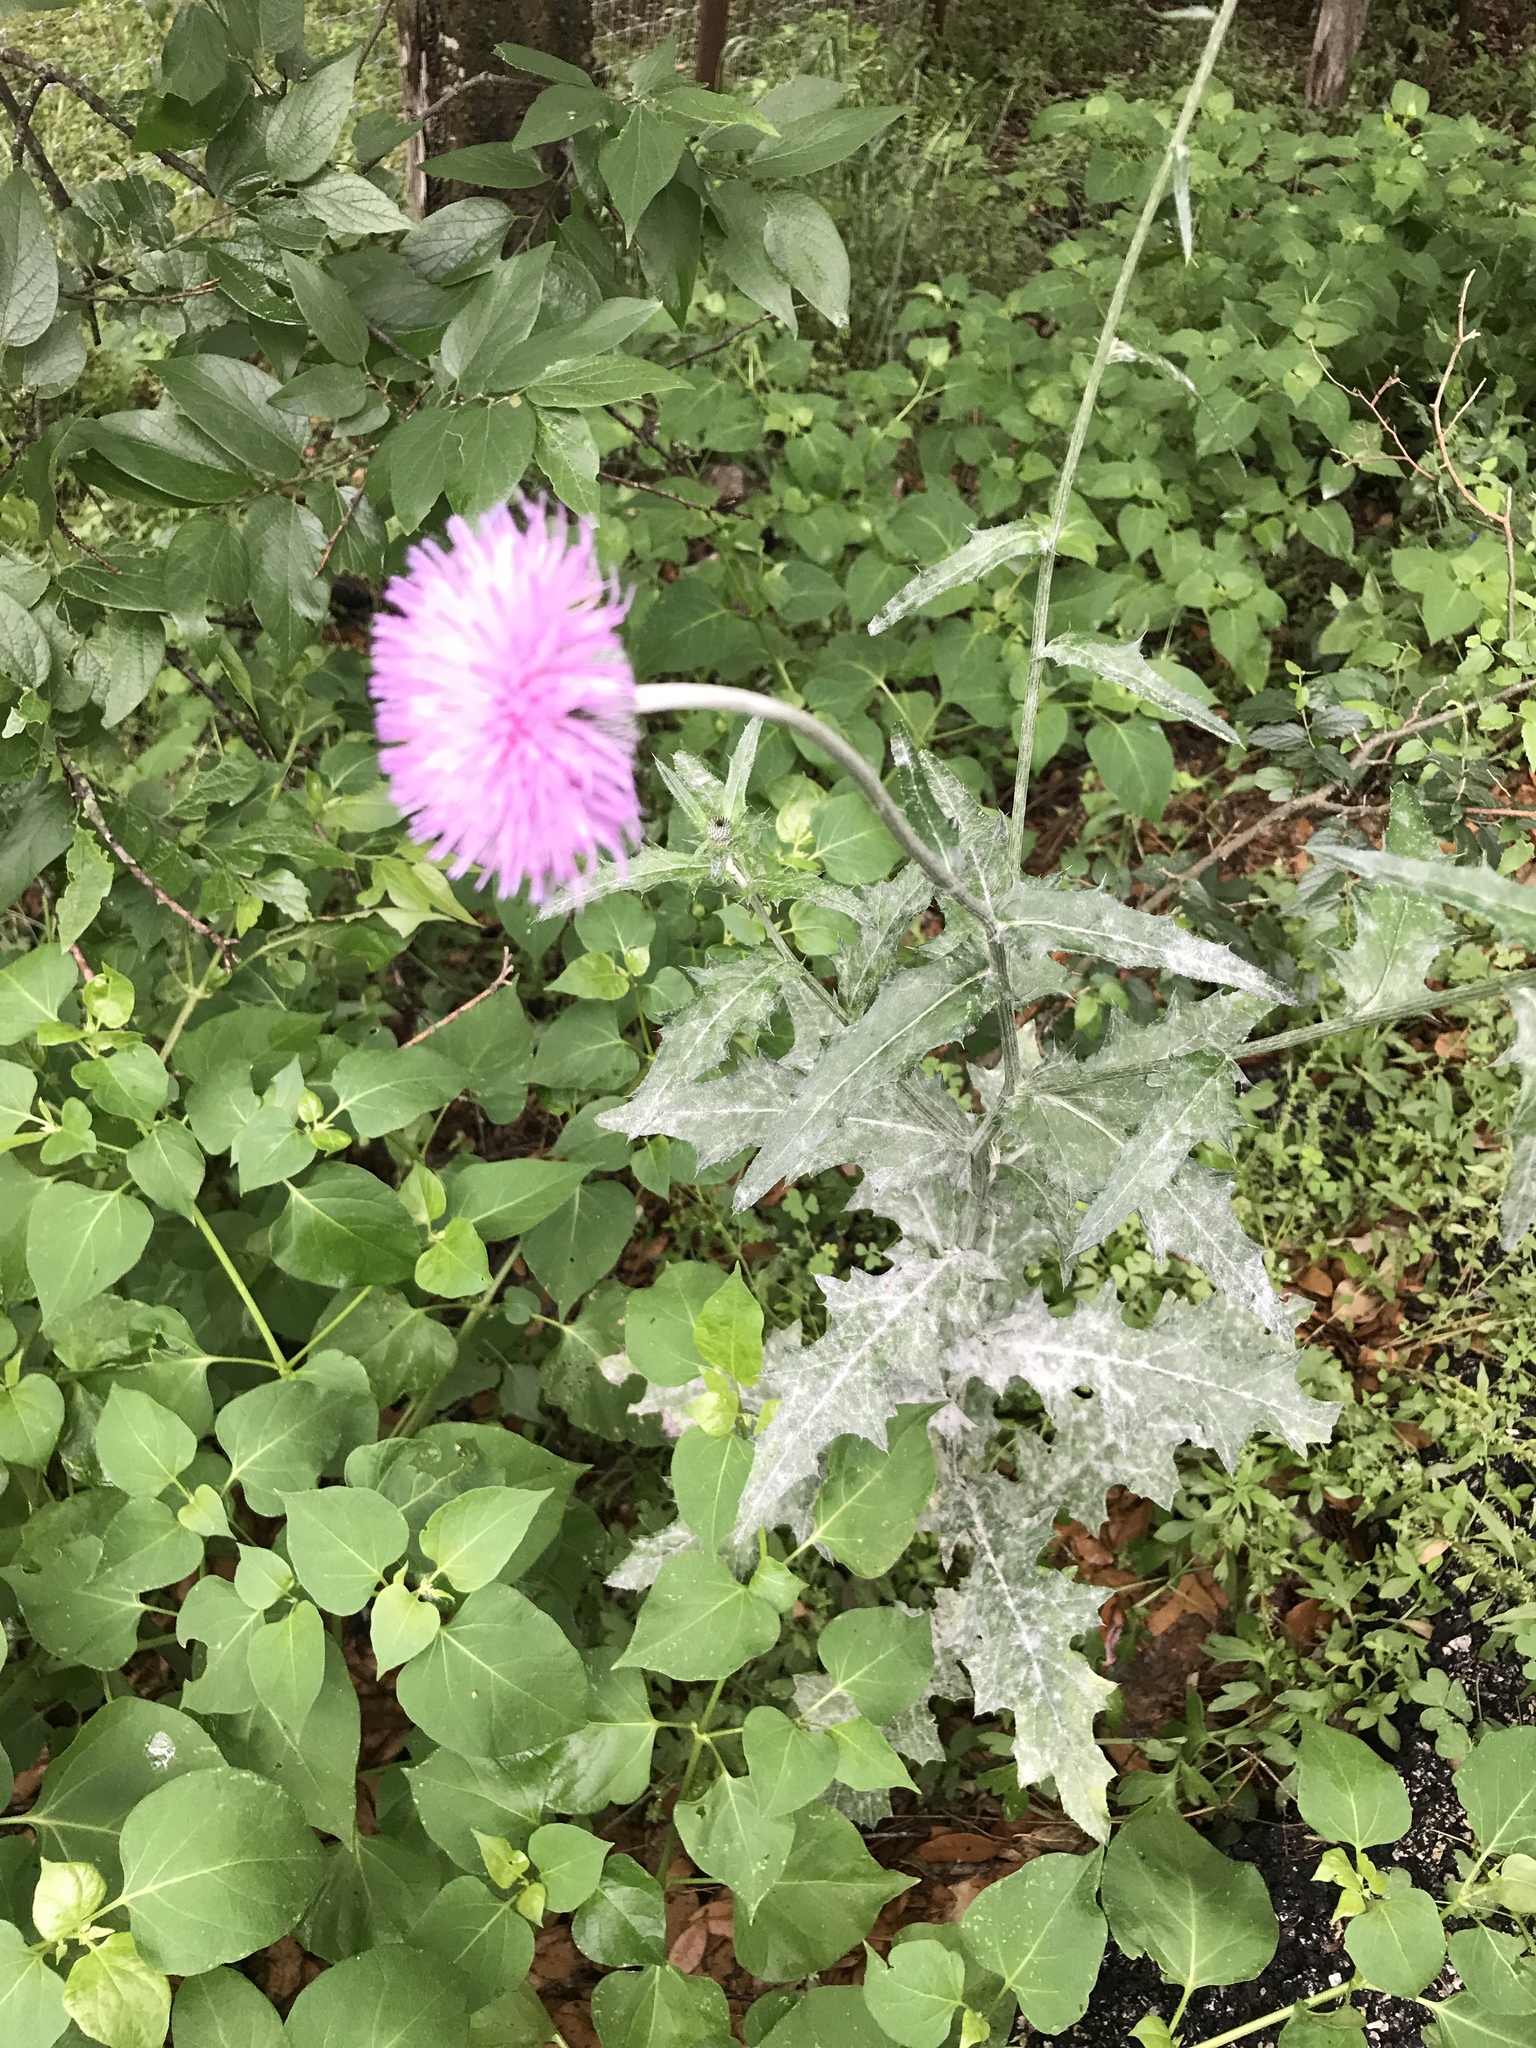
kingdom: Plantae
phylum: Tracheophyta
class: Magnoliopsida
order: Asterales
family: Asteraceae
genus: Cirsium
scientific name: Cirsium texanum
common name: Texas purple thistle
